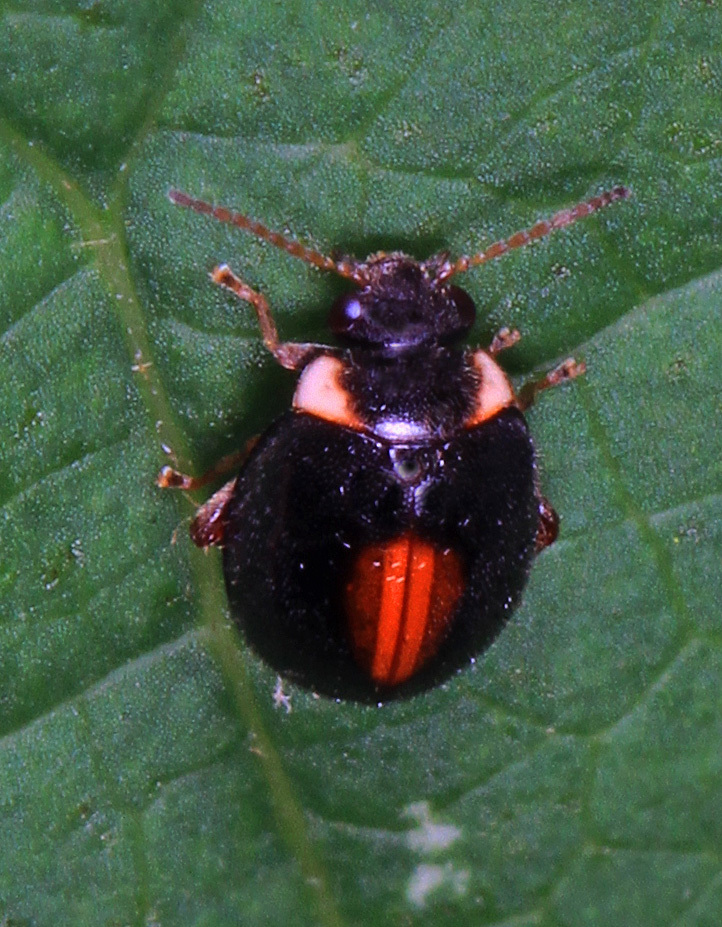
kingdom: Animalia
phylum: Arthropoda
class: Insecta
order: Coleoptera
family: Scirtidae
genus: Scirtes
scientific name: Scirtes orbiculatus
